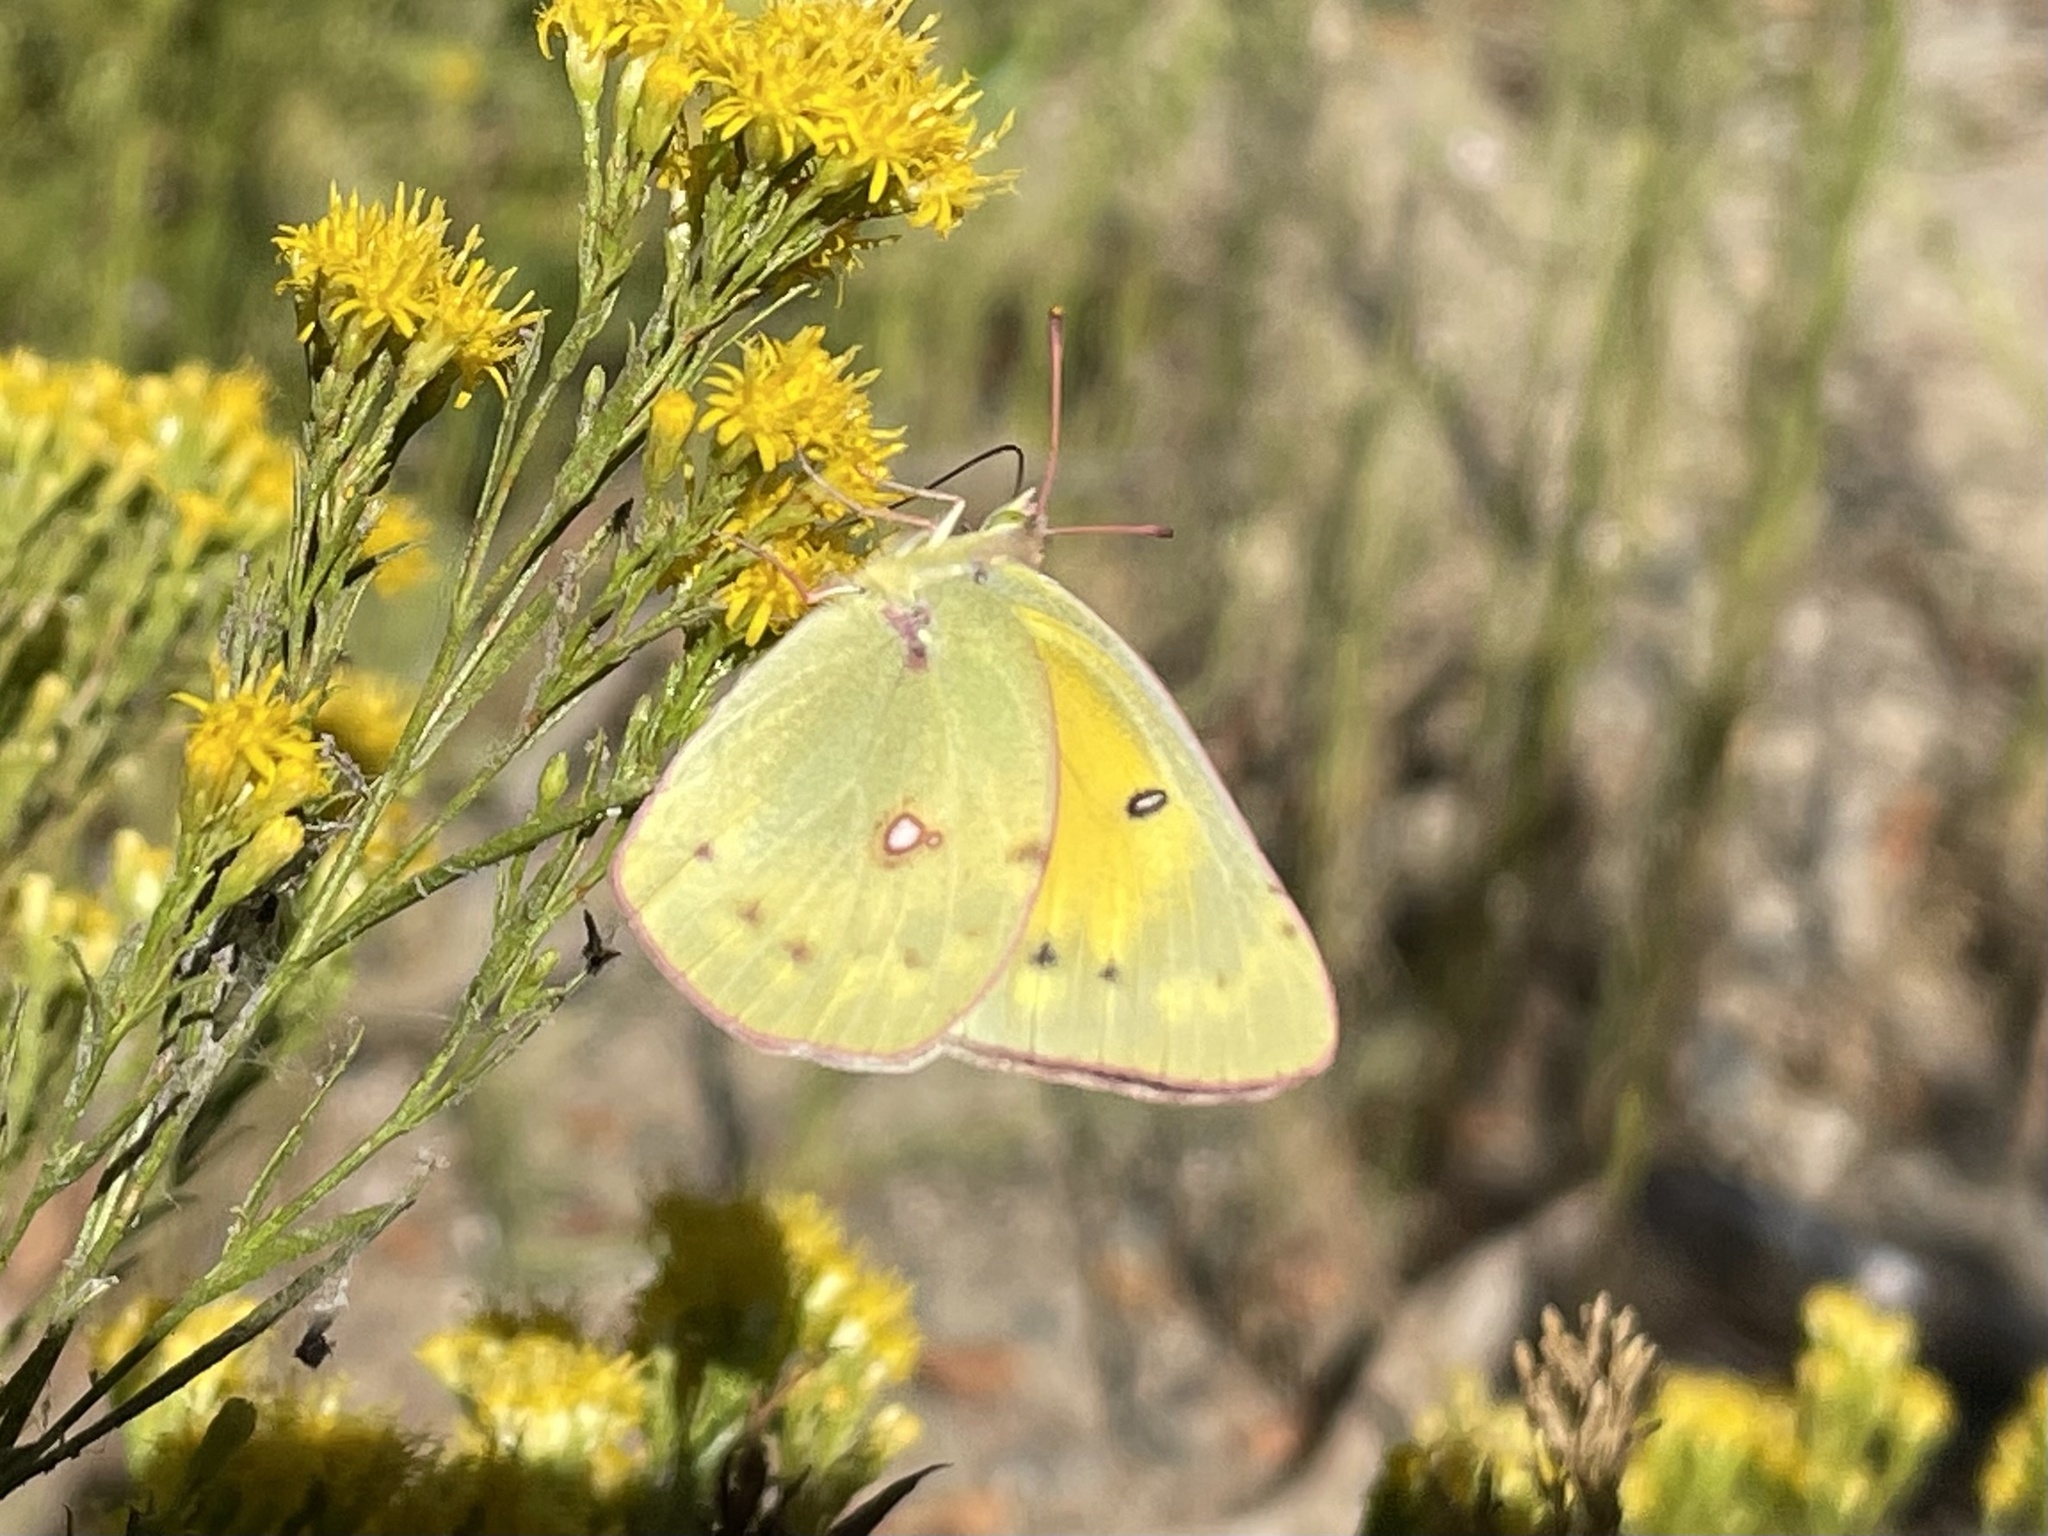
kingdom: Animalia
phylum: Arthropoda
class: Insecta
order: Lepidoptera
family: Pieridae
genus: Colias
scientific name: Colias eurytheme
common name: Alfalfa butterfly
